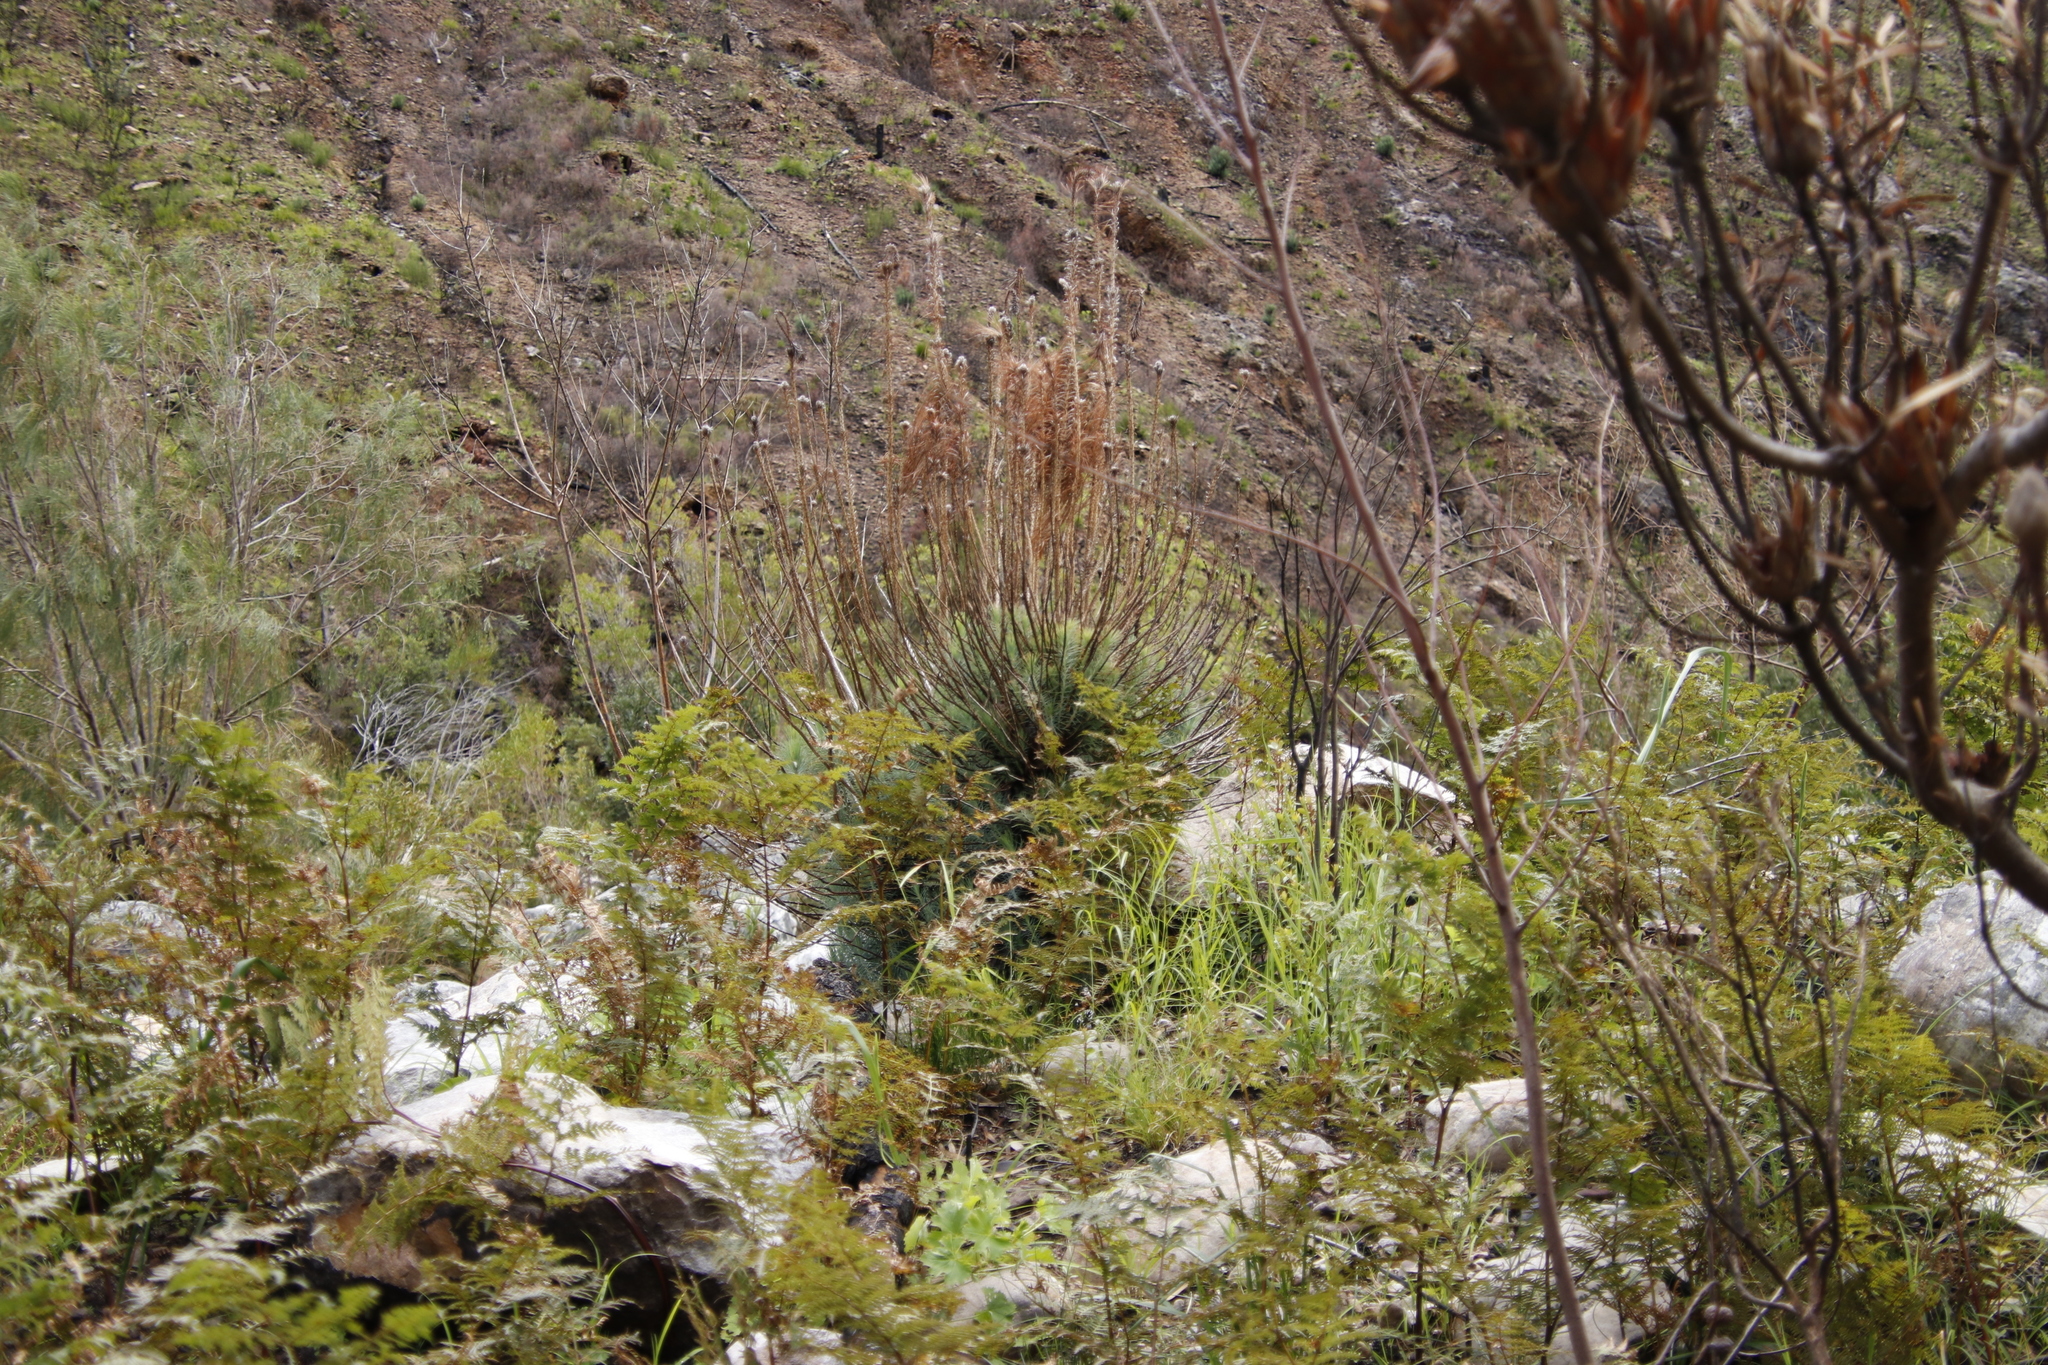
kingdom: Plantae
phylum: Tracheophyta
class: Pinopsida
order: Pinales
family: Pinaceae
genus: Pinus
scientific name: Pinus canariensis
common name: Canary islands pine
